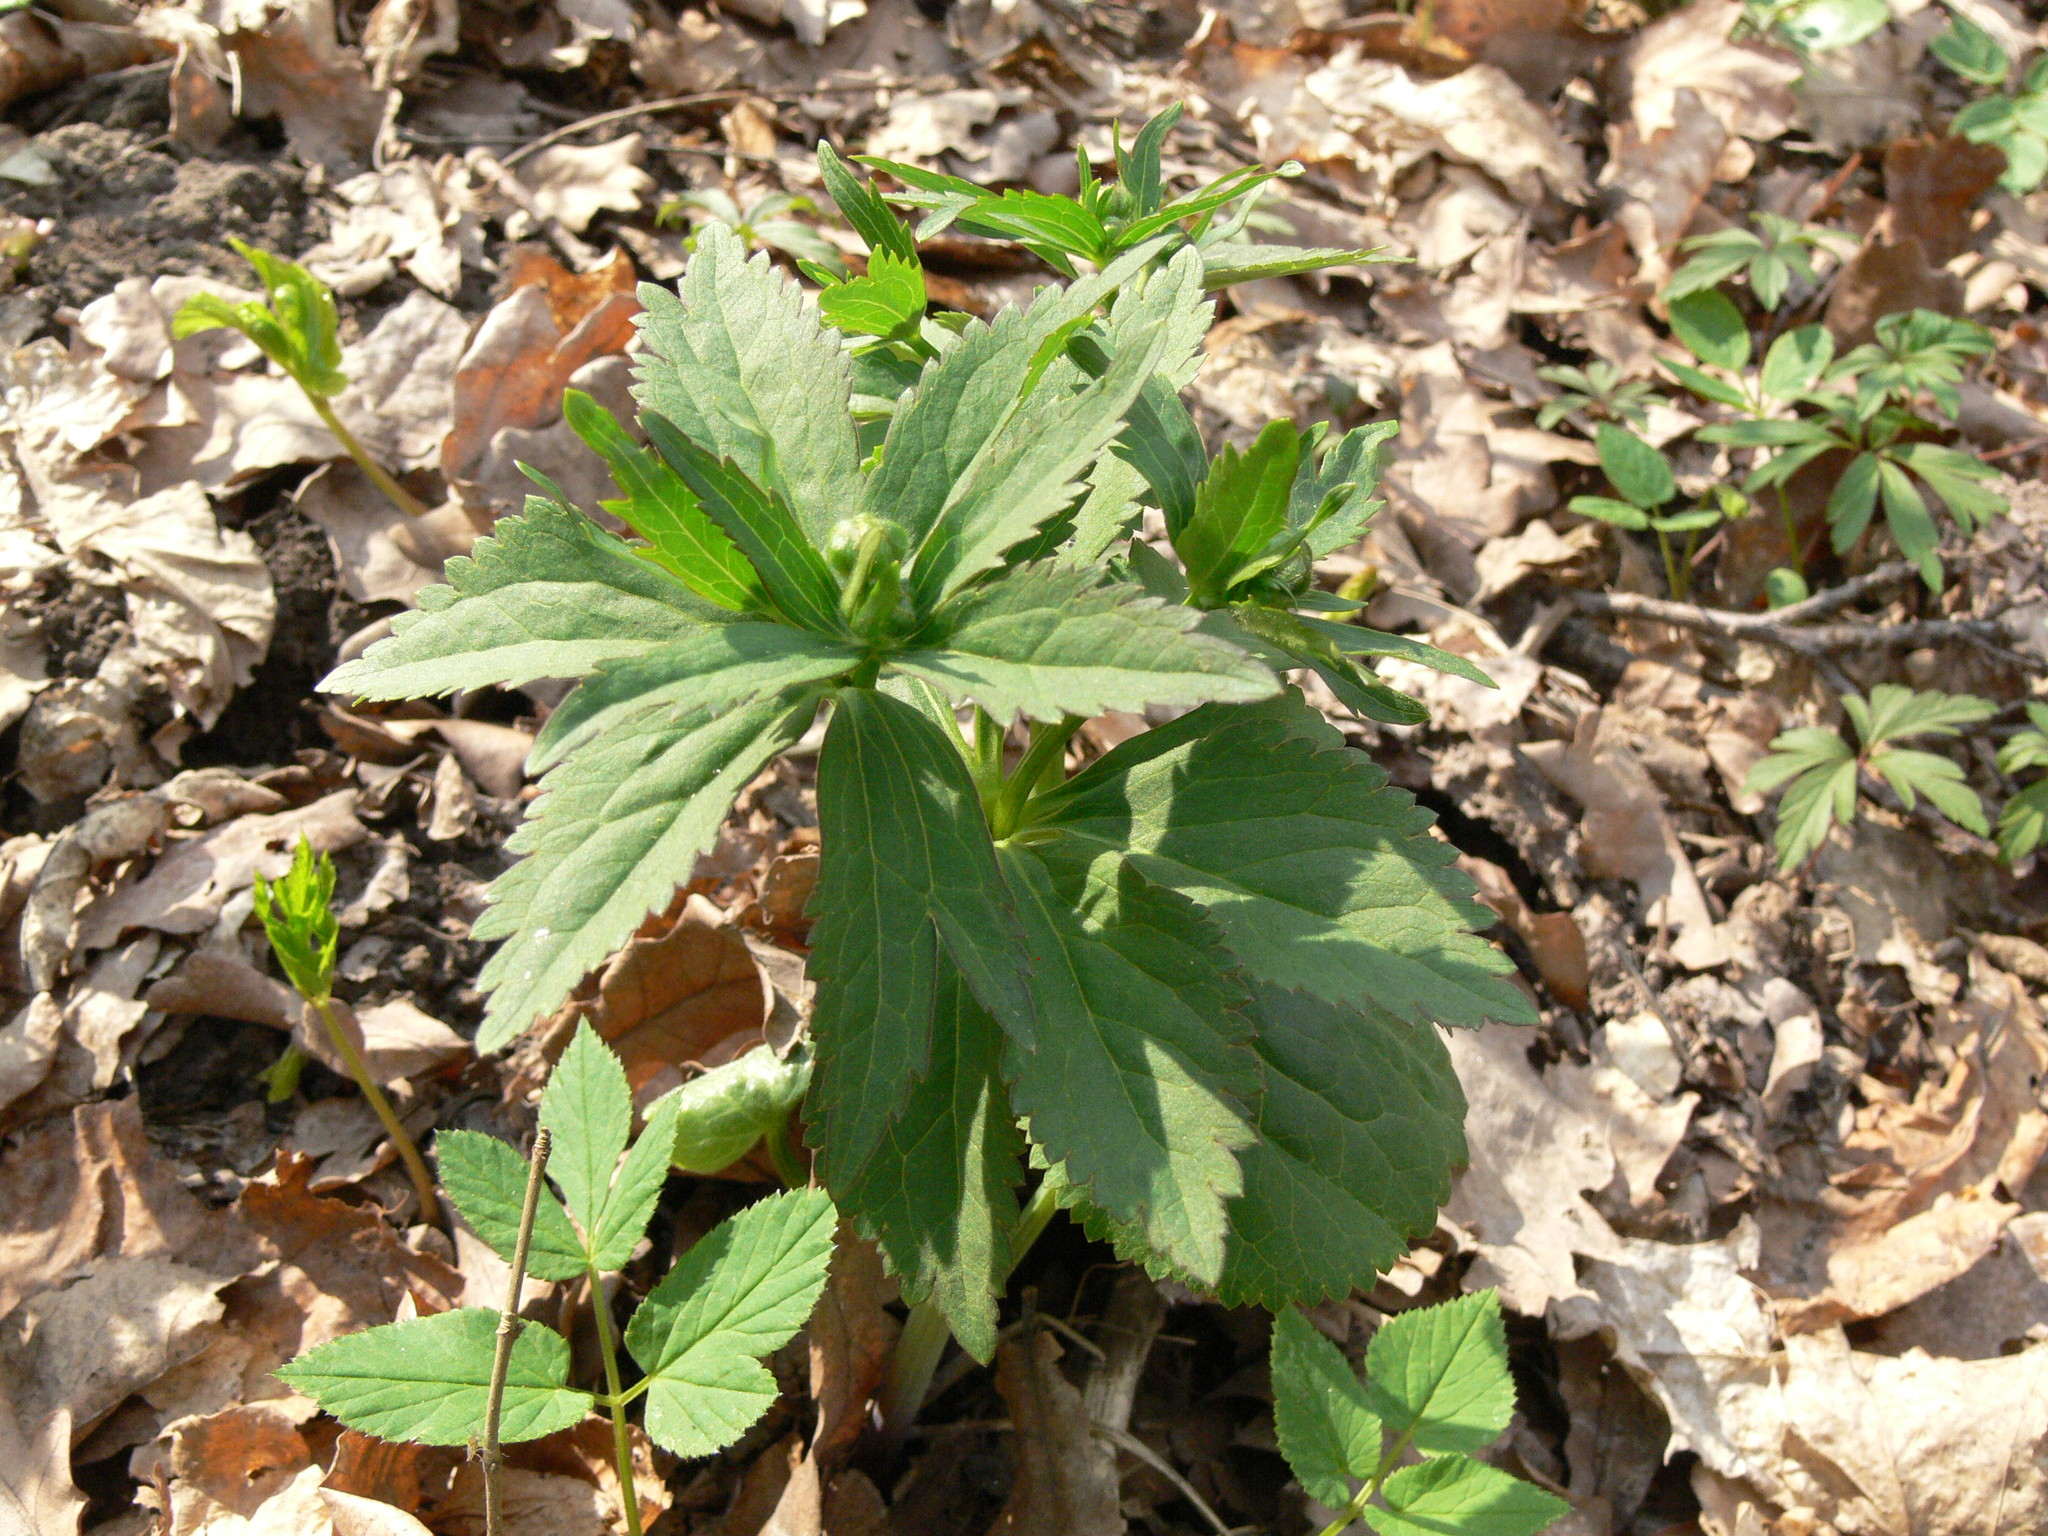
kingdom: Plantae
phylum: Tracheophyta
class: Magnoliopsida
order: Ranunculales
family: Ranunculaceae
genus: Ranunculus
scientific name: Ranunculus cassubicus
